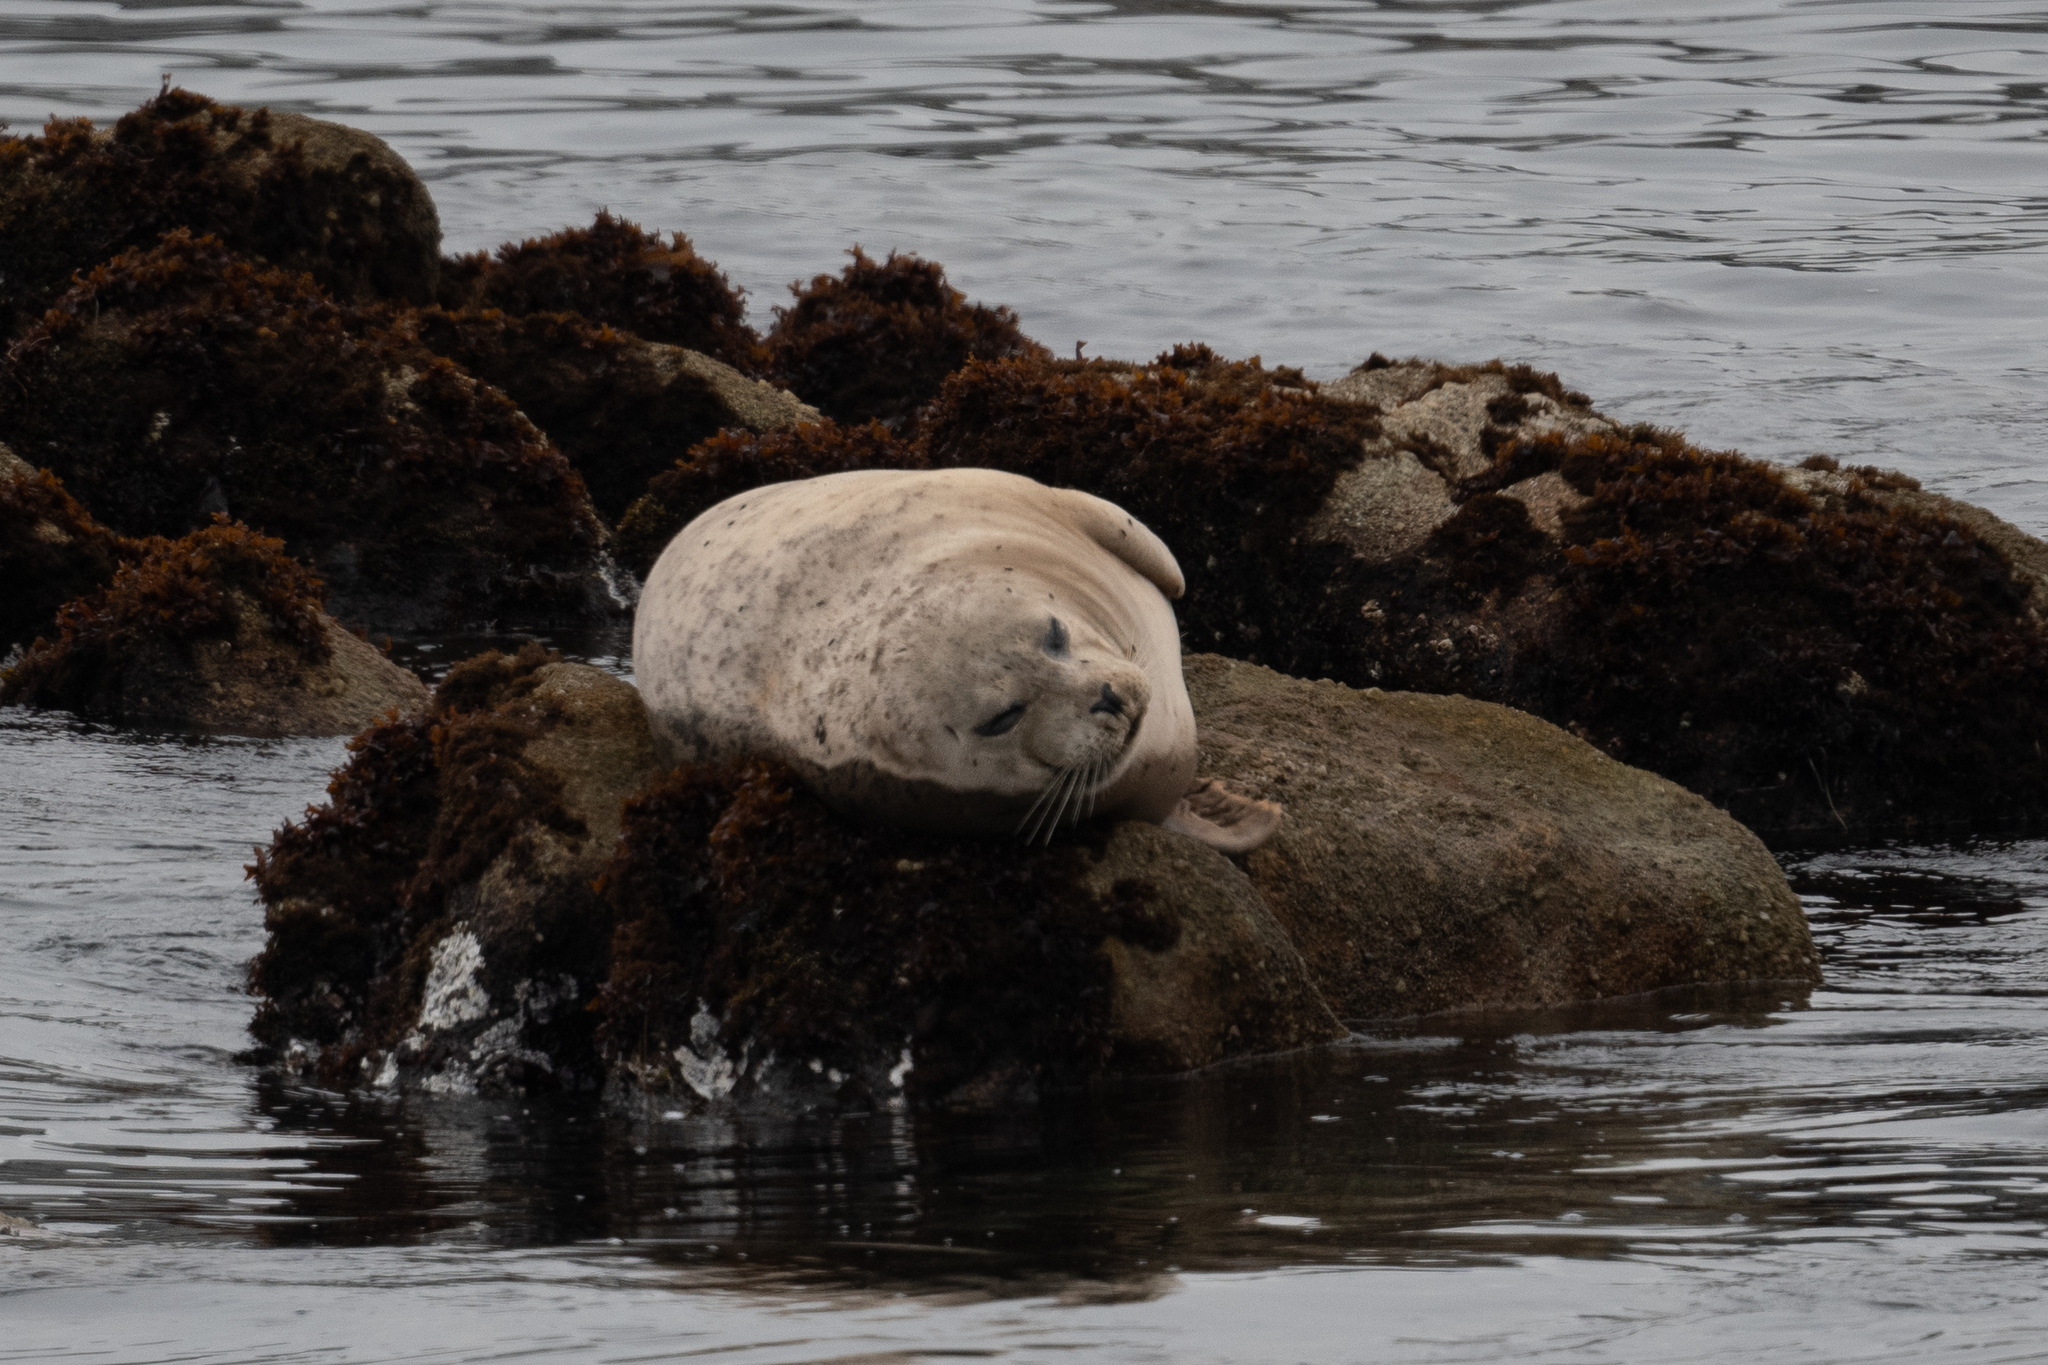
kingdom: Animalia
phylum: Chordata
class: Mammalia
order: Carnivora
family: Phocidae
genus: Phoca
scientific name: Phoca vitulina
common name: Harbor seal
